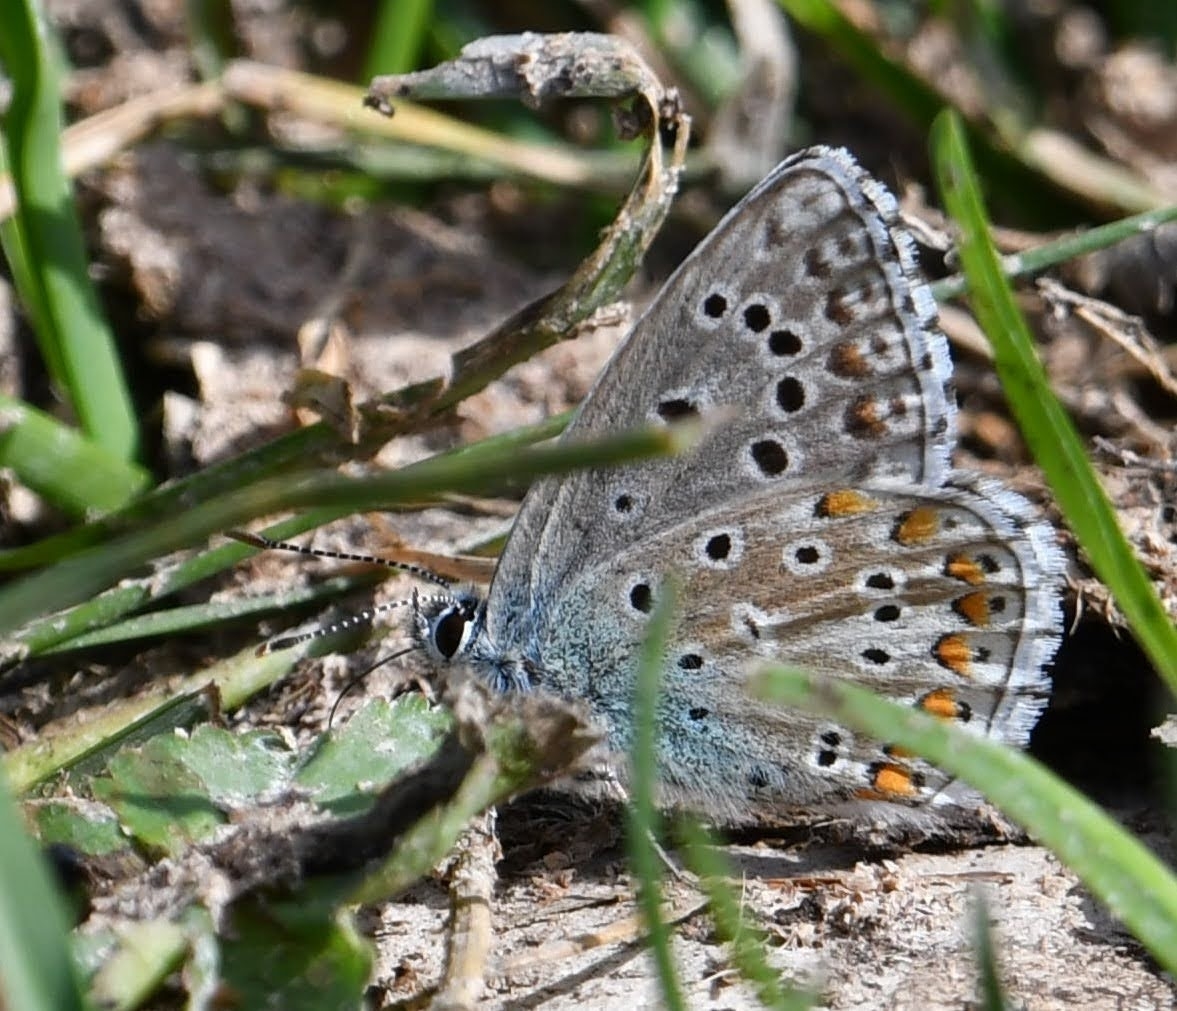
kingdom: Animalia
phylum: Arthropoda
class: Insecta
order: Lepidoptera
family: Lycaenidae
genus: Lysandra
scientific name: Lysandra bellargus
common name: Adonis blue
